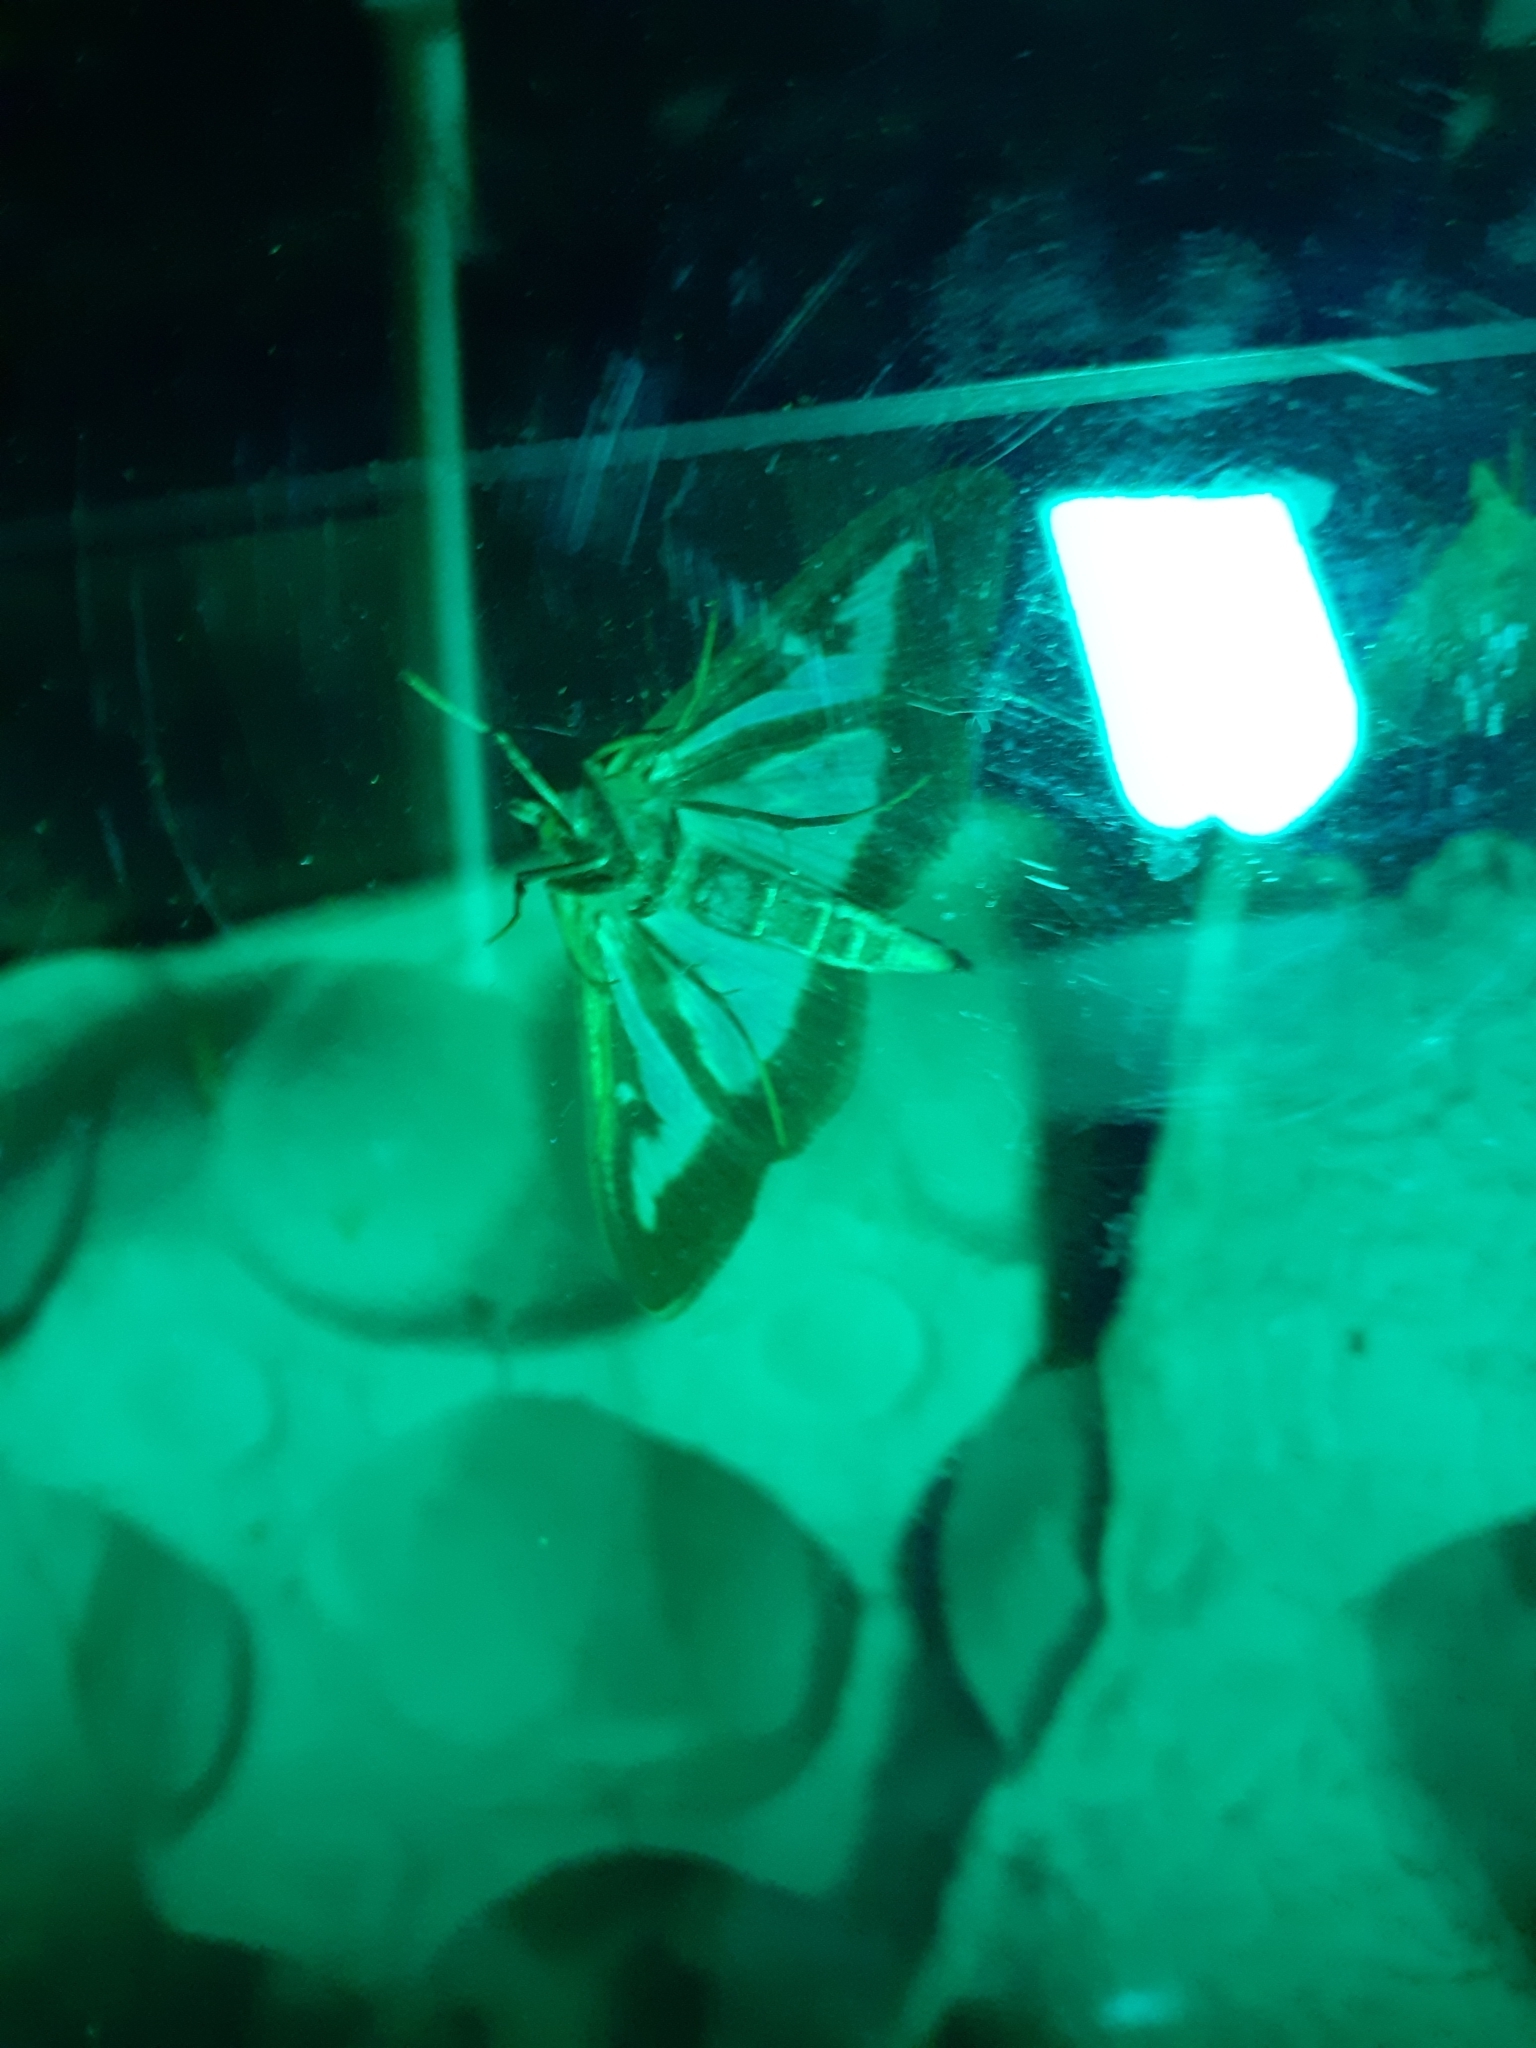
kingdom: Animalia
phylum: Arthropoda
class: Insecta
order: Lepidoptera
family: Crambidae
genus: Cydalima
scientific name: Cydalima perspectalis
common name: Box tree moth
